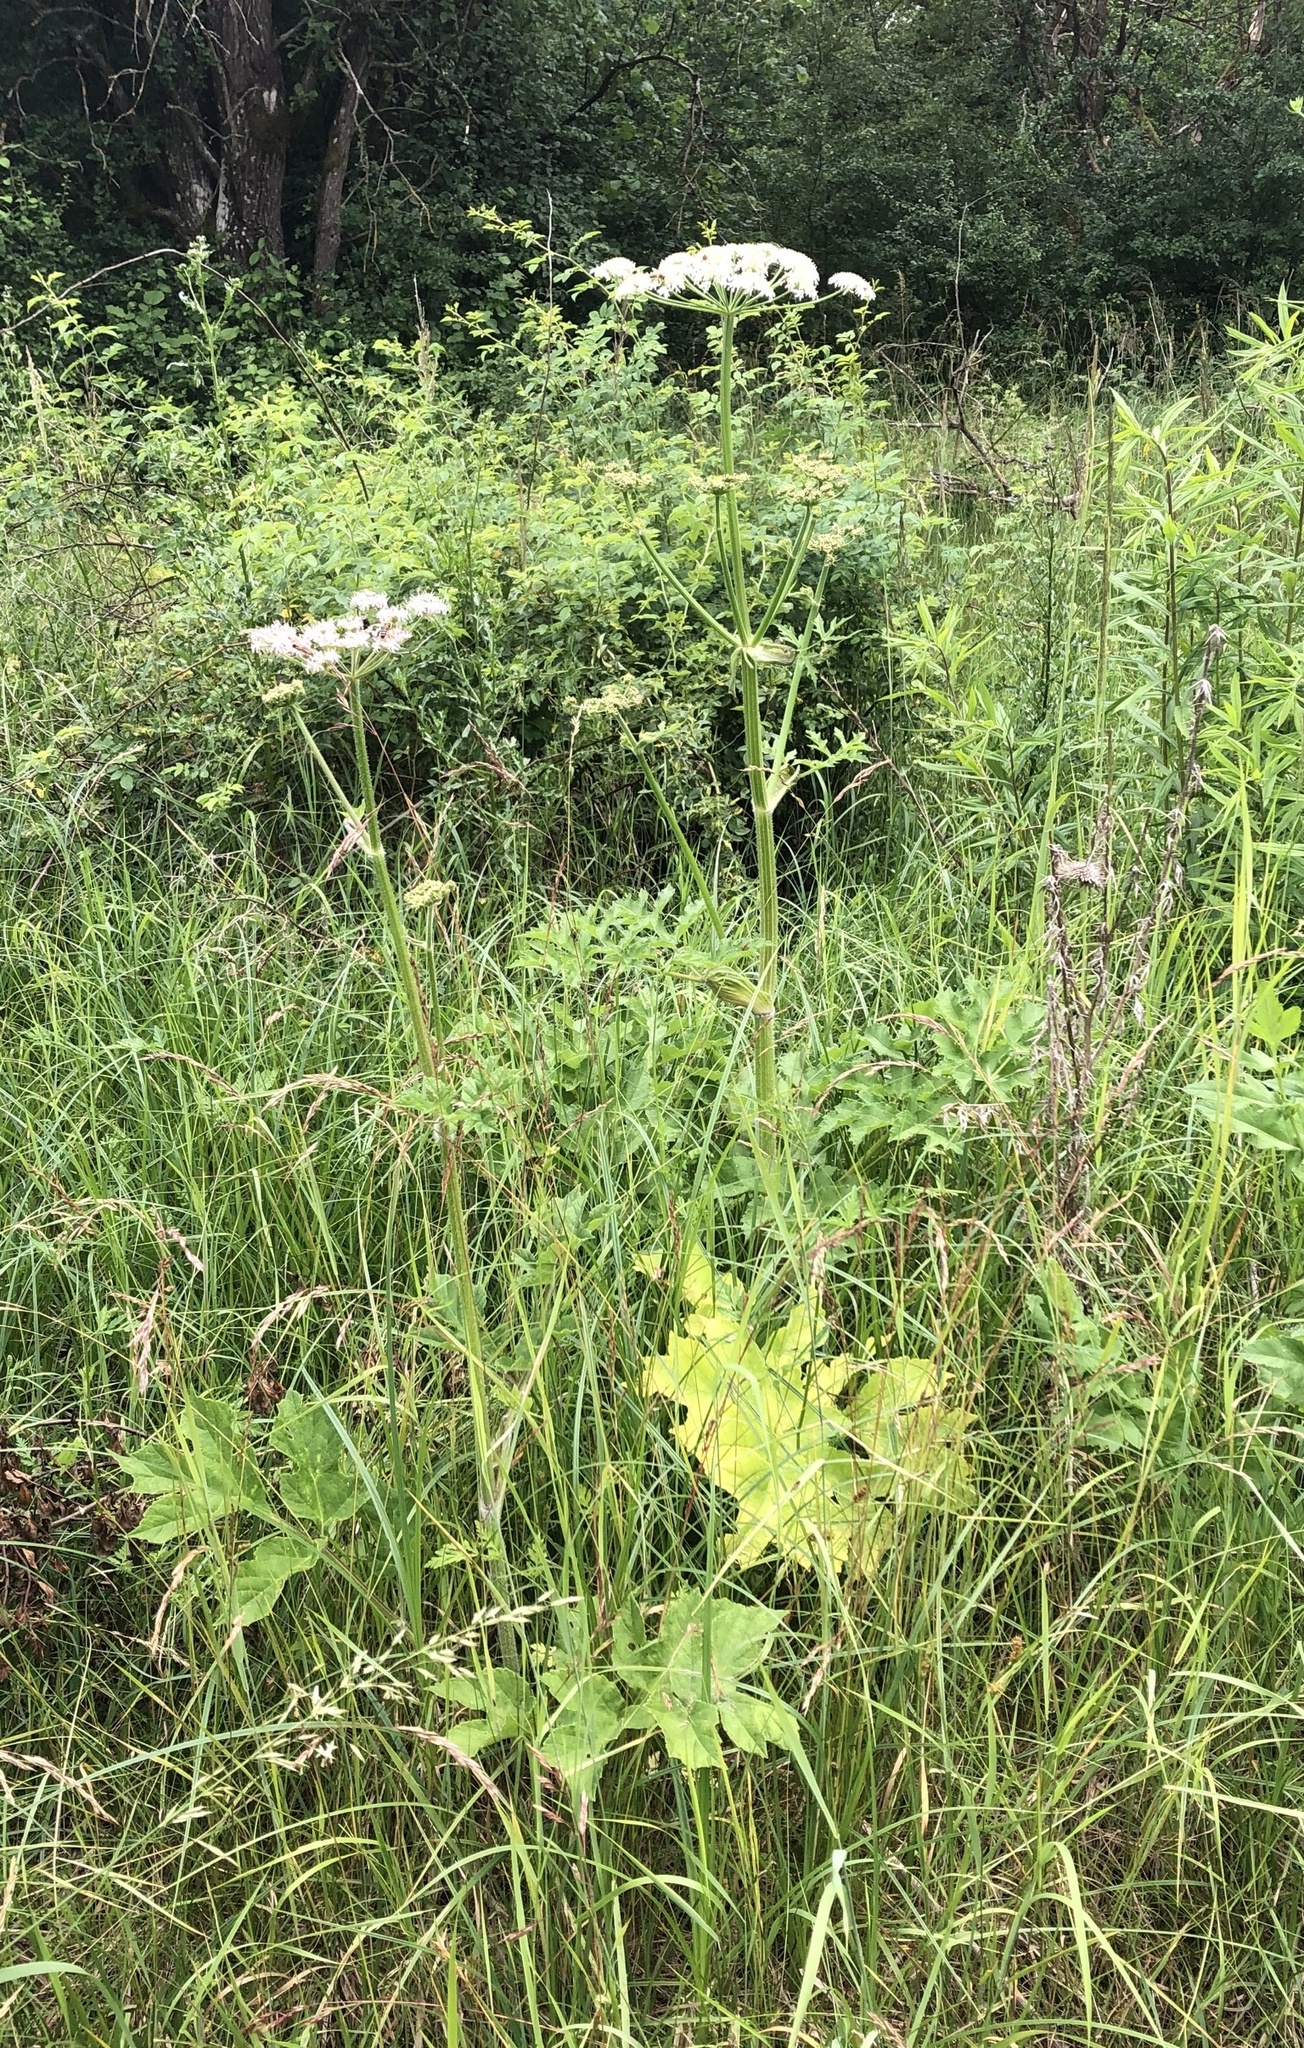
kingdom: Plantae
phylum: Tracheophyta
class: Magnoliopsida
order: Apiales
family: Apiaceae
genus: Heracleum
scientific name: Heracleum sphondylium
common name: Hogweed
